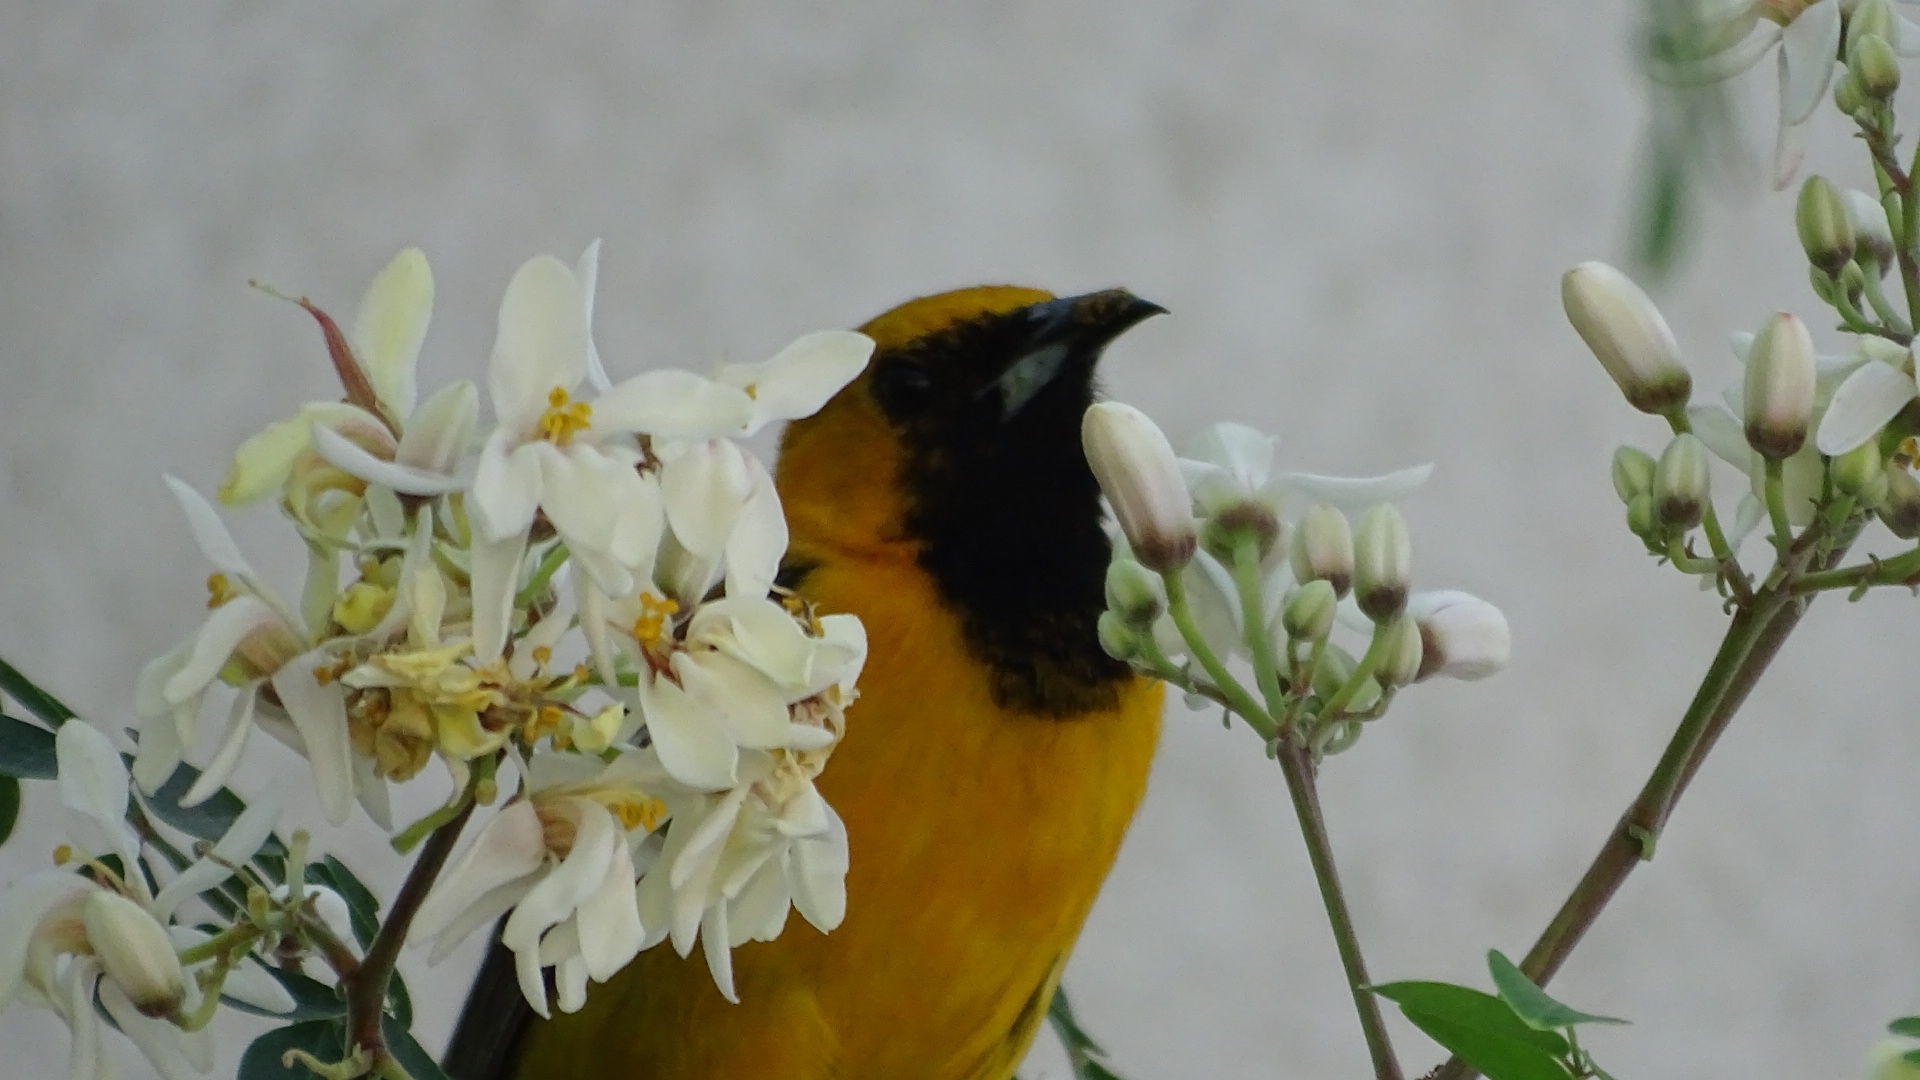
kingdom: Animalia
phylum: Chordata
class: Aves
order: Passeriformes
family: Icteridae
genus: Icterus
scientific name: Icterus cucullatus
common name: Hooded oriole
